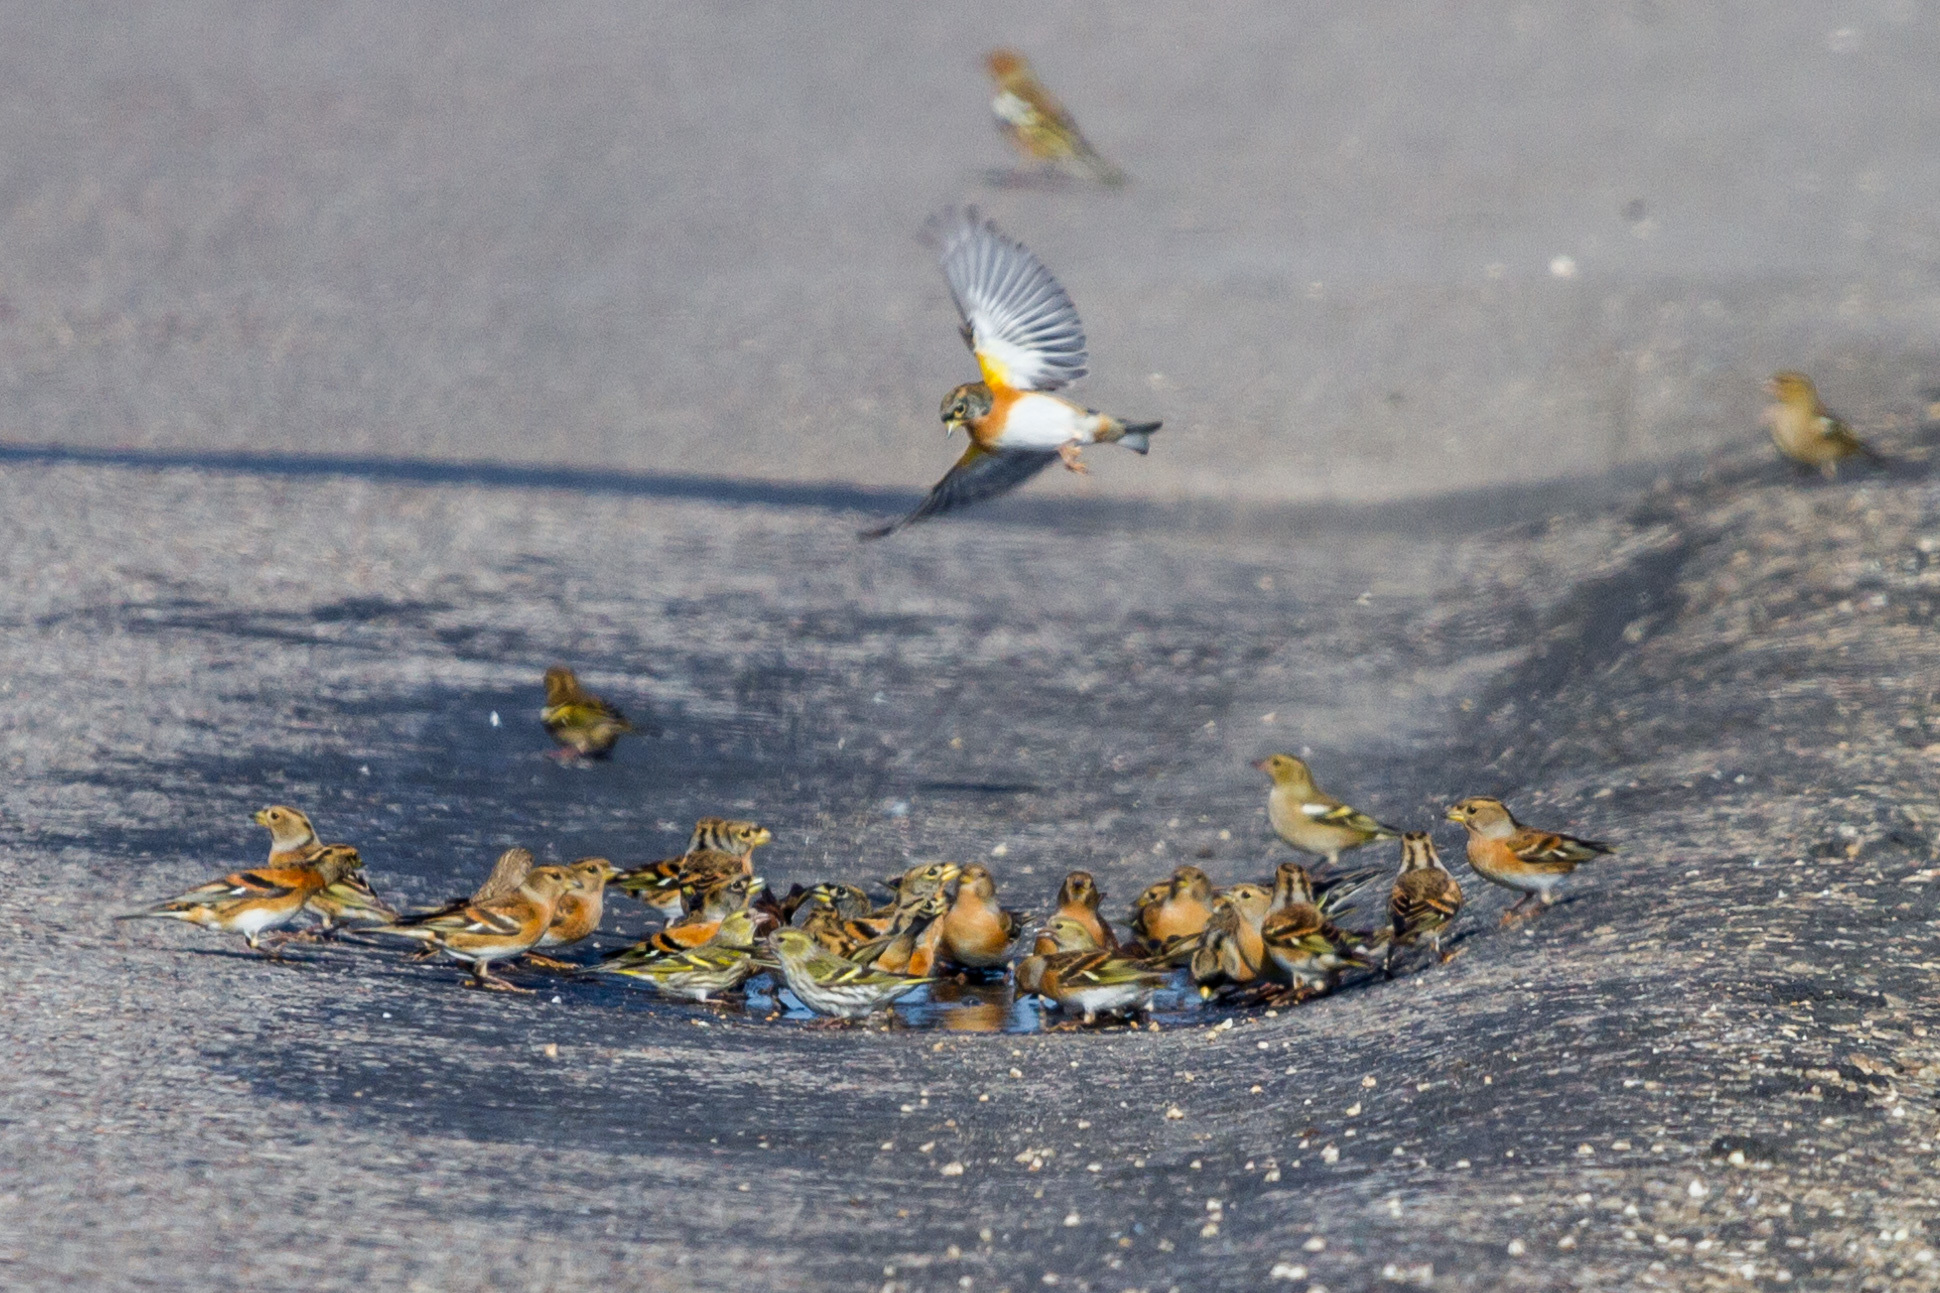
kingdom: Animalia
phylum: Chordata
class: Aves
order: Passeriformes
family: Fringillidae
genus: Fringilla
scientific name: Fringilla montifringilla
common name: Brambling
